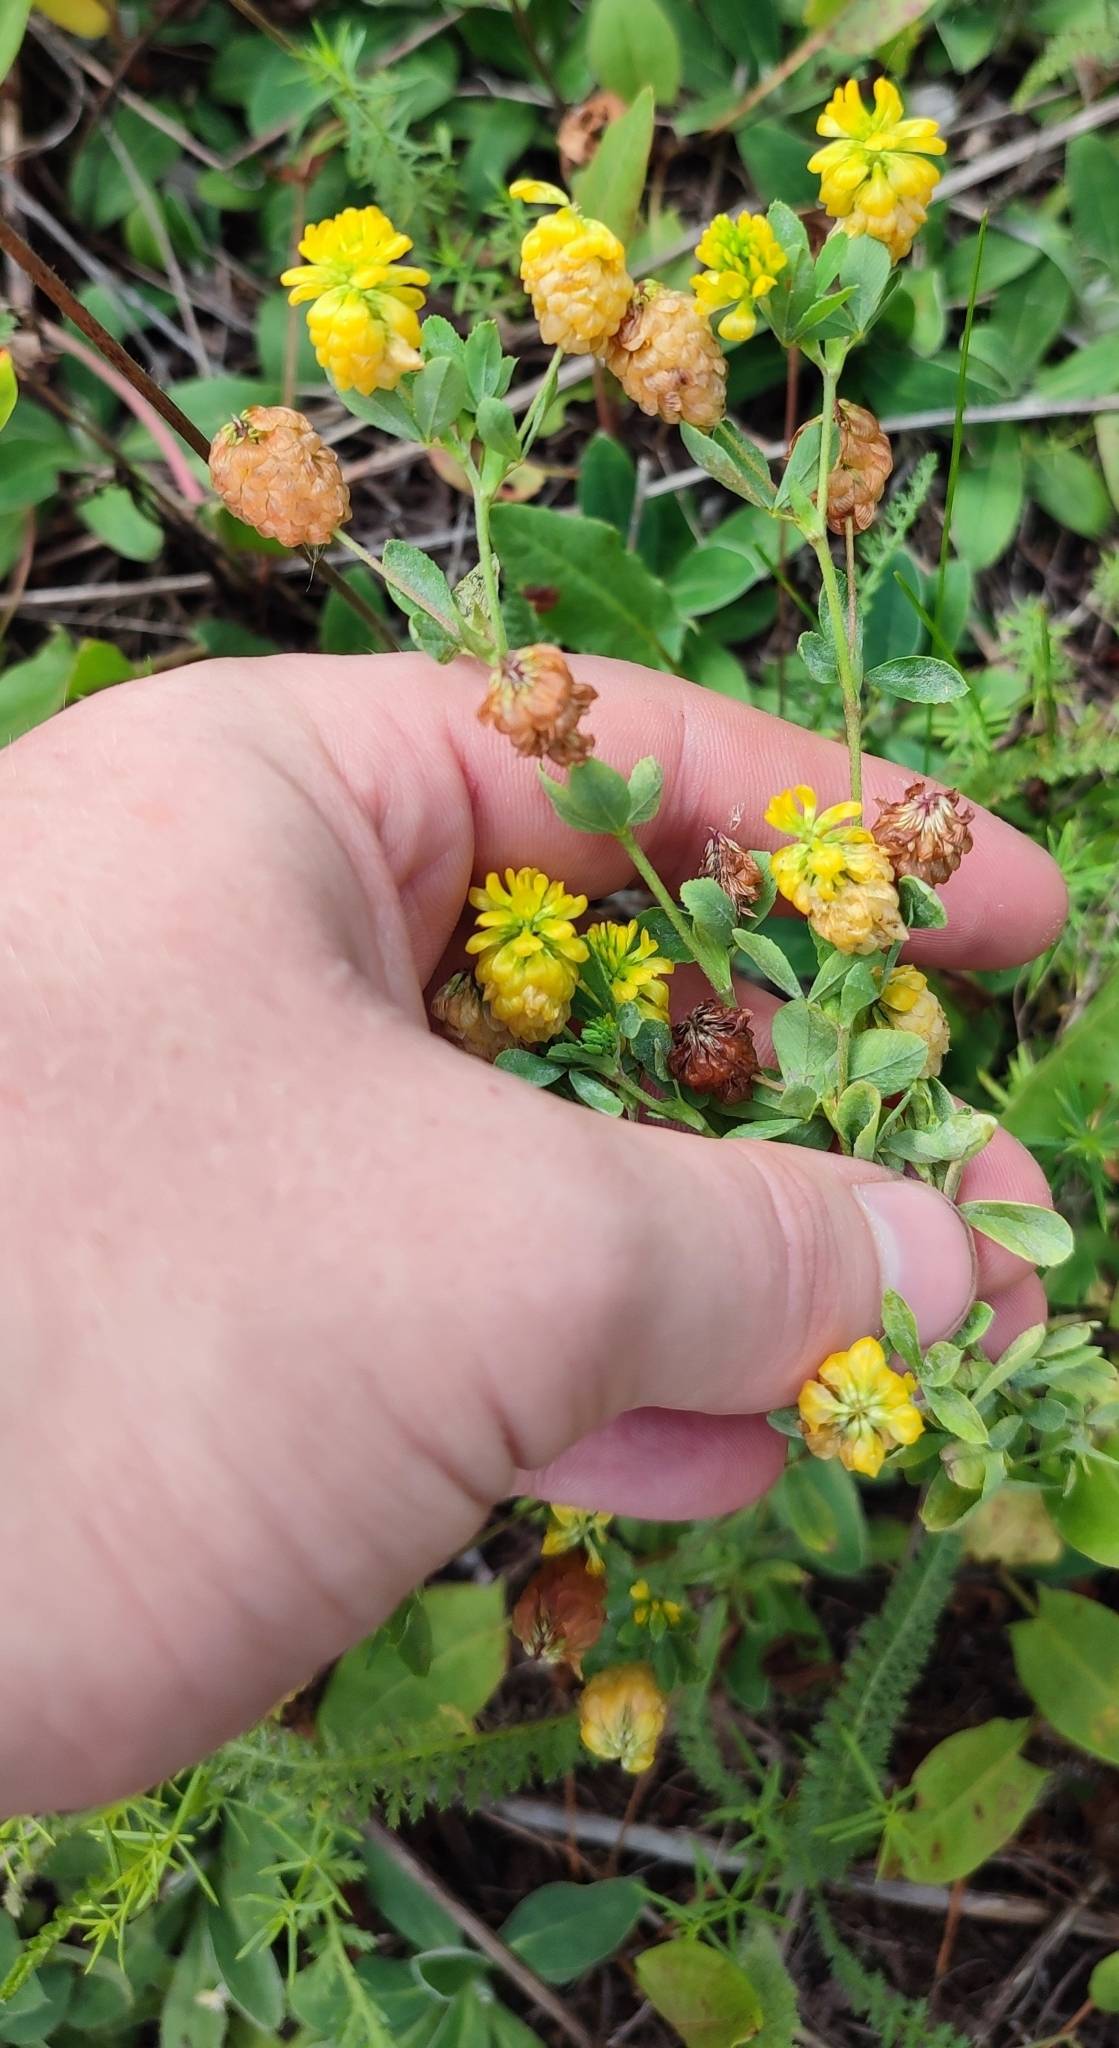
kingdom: Plantae
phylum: Tracheophyta
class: Magnoliopsida
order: Fabales
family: Fabaceae
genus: Trifolium
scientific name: Trifolium aureum
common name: Golden clover
